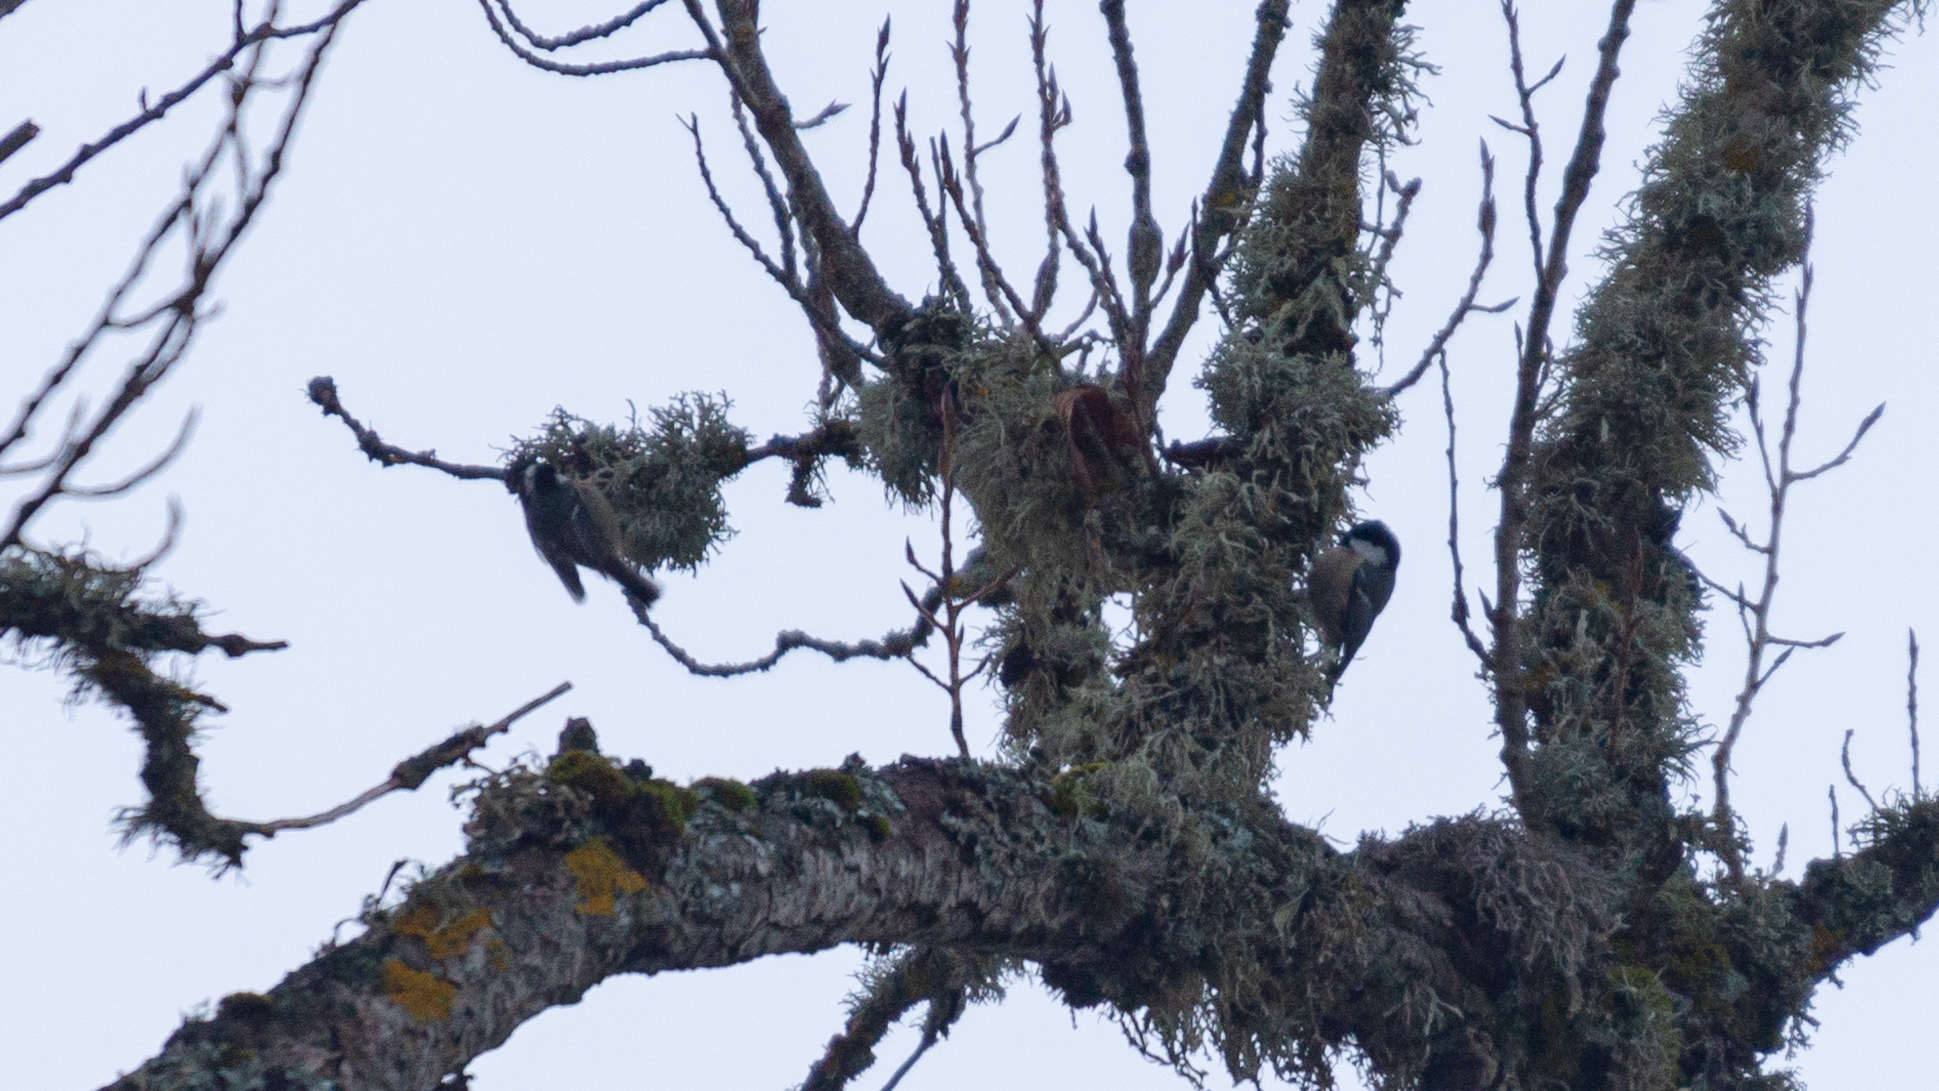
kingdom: Animalia
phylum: Chordata
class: Aves
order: Passeriformes
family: Paridae
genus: Periparus
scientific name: Periparus ater
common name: Coal tit
